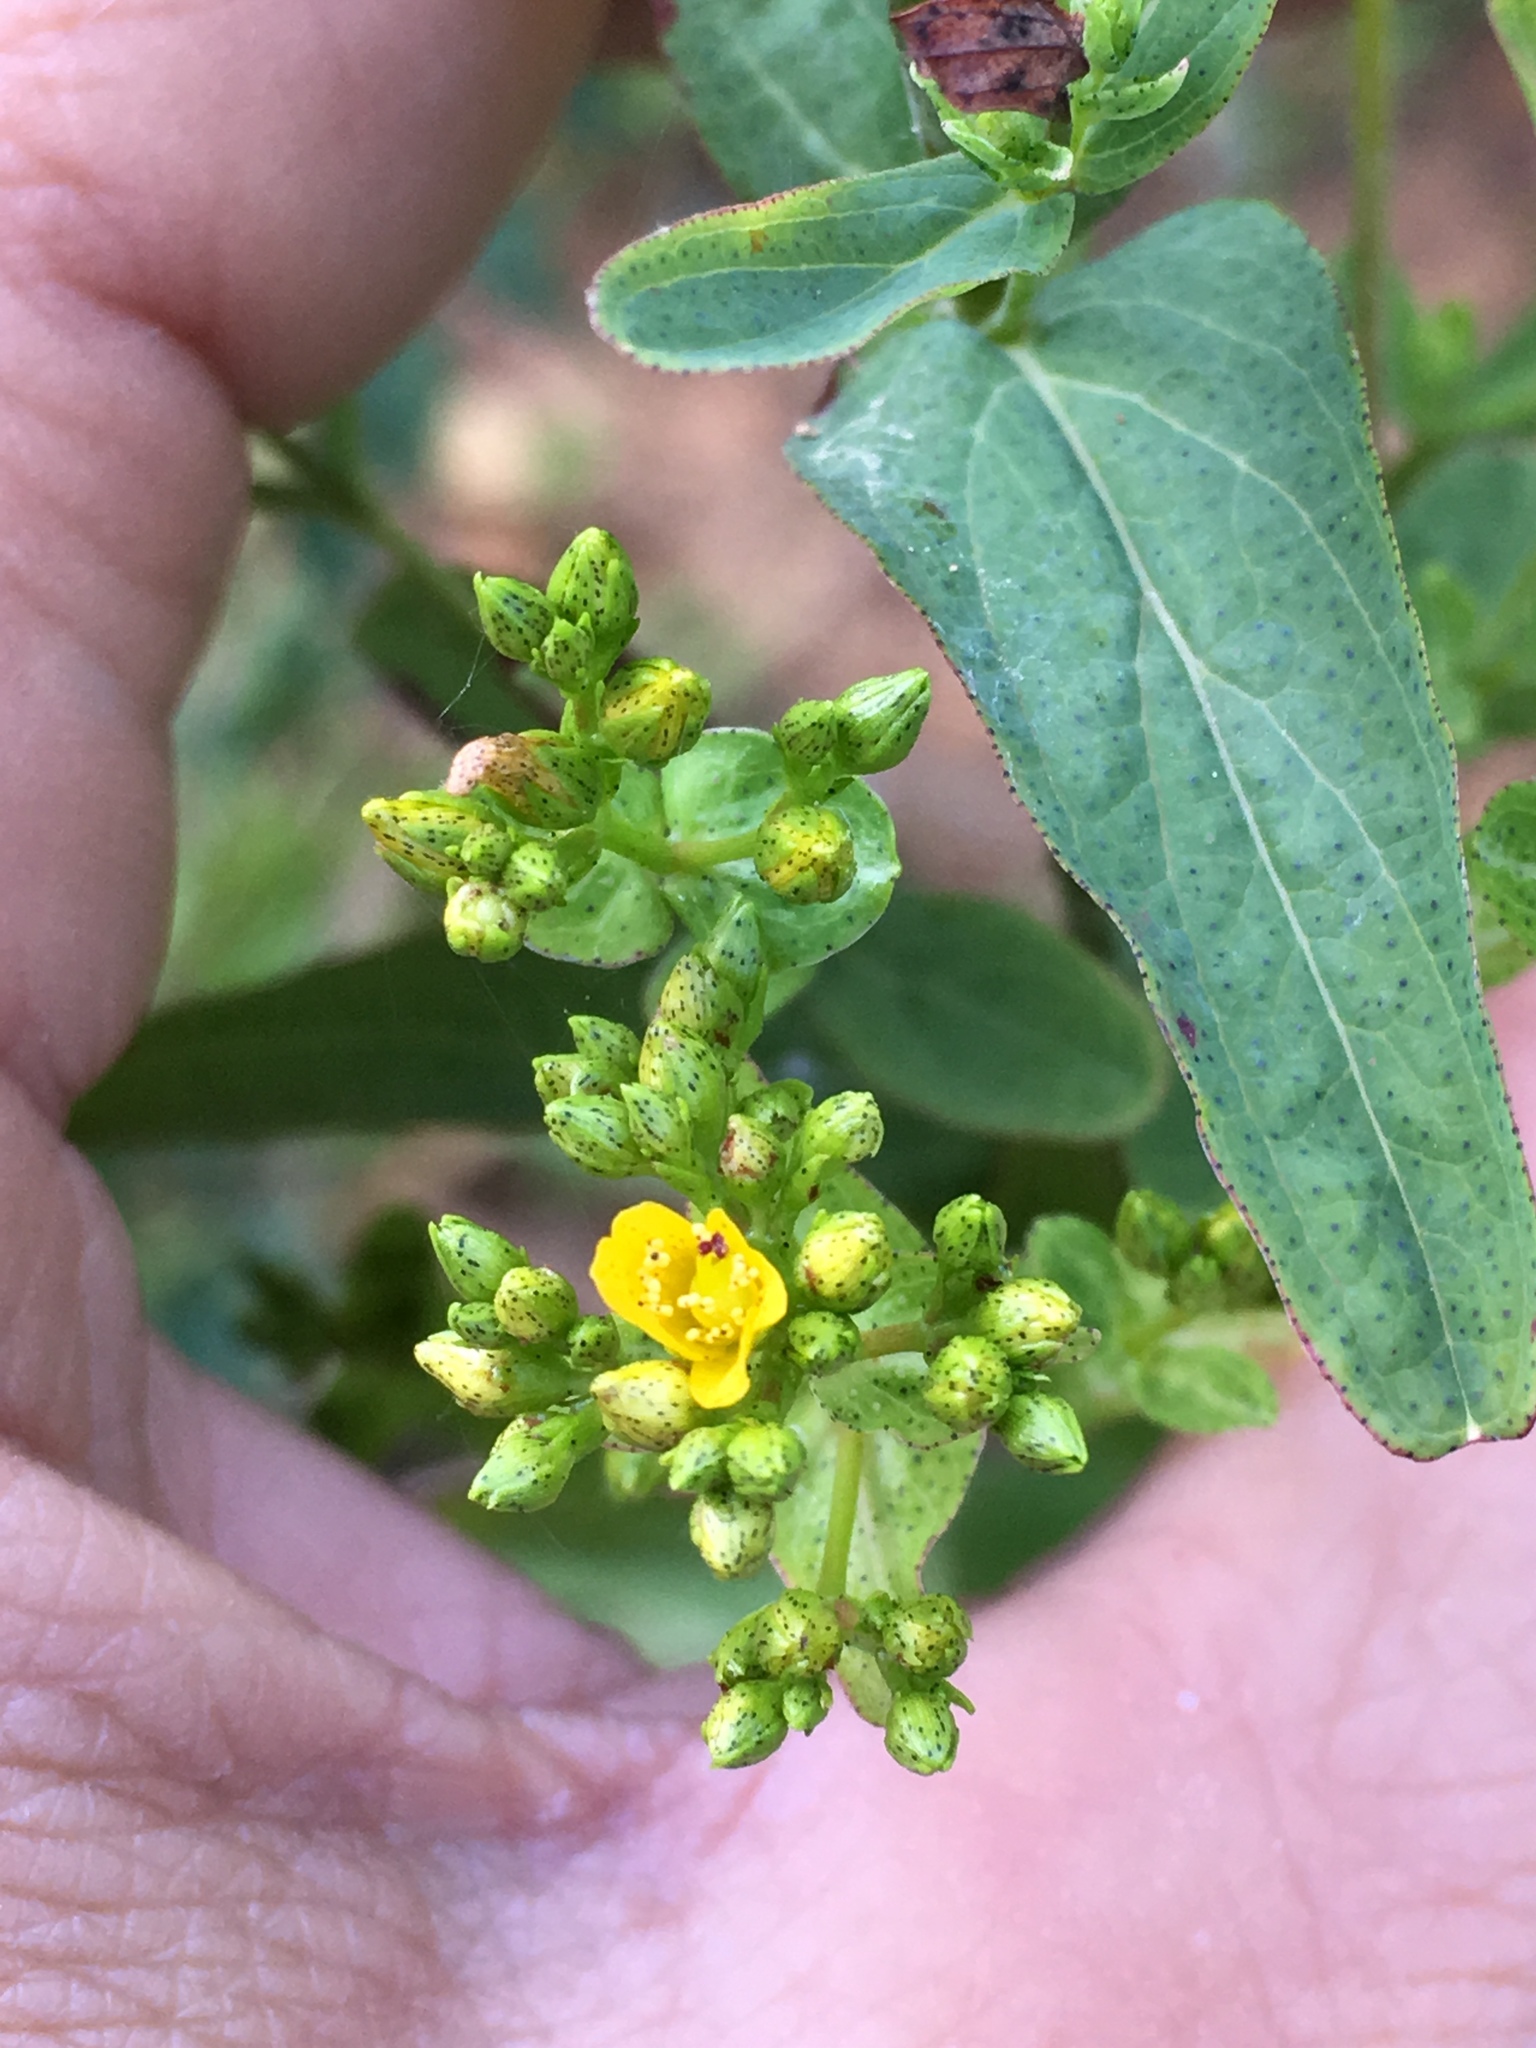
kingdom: Plantae
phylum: Tracheophyta
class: Magnoliopsida
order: Malpighiales
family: Hypericaceae
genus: Hypericum
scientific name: Hypericum punctatum
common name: Spotted st. john's-wort
